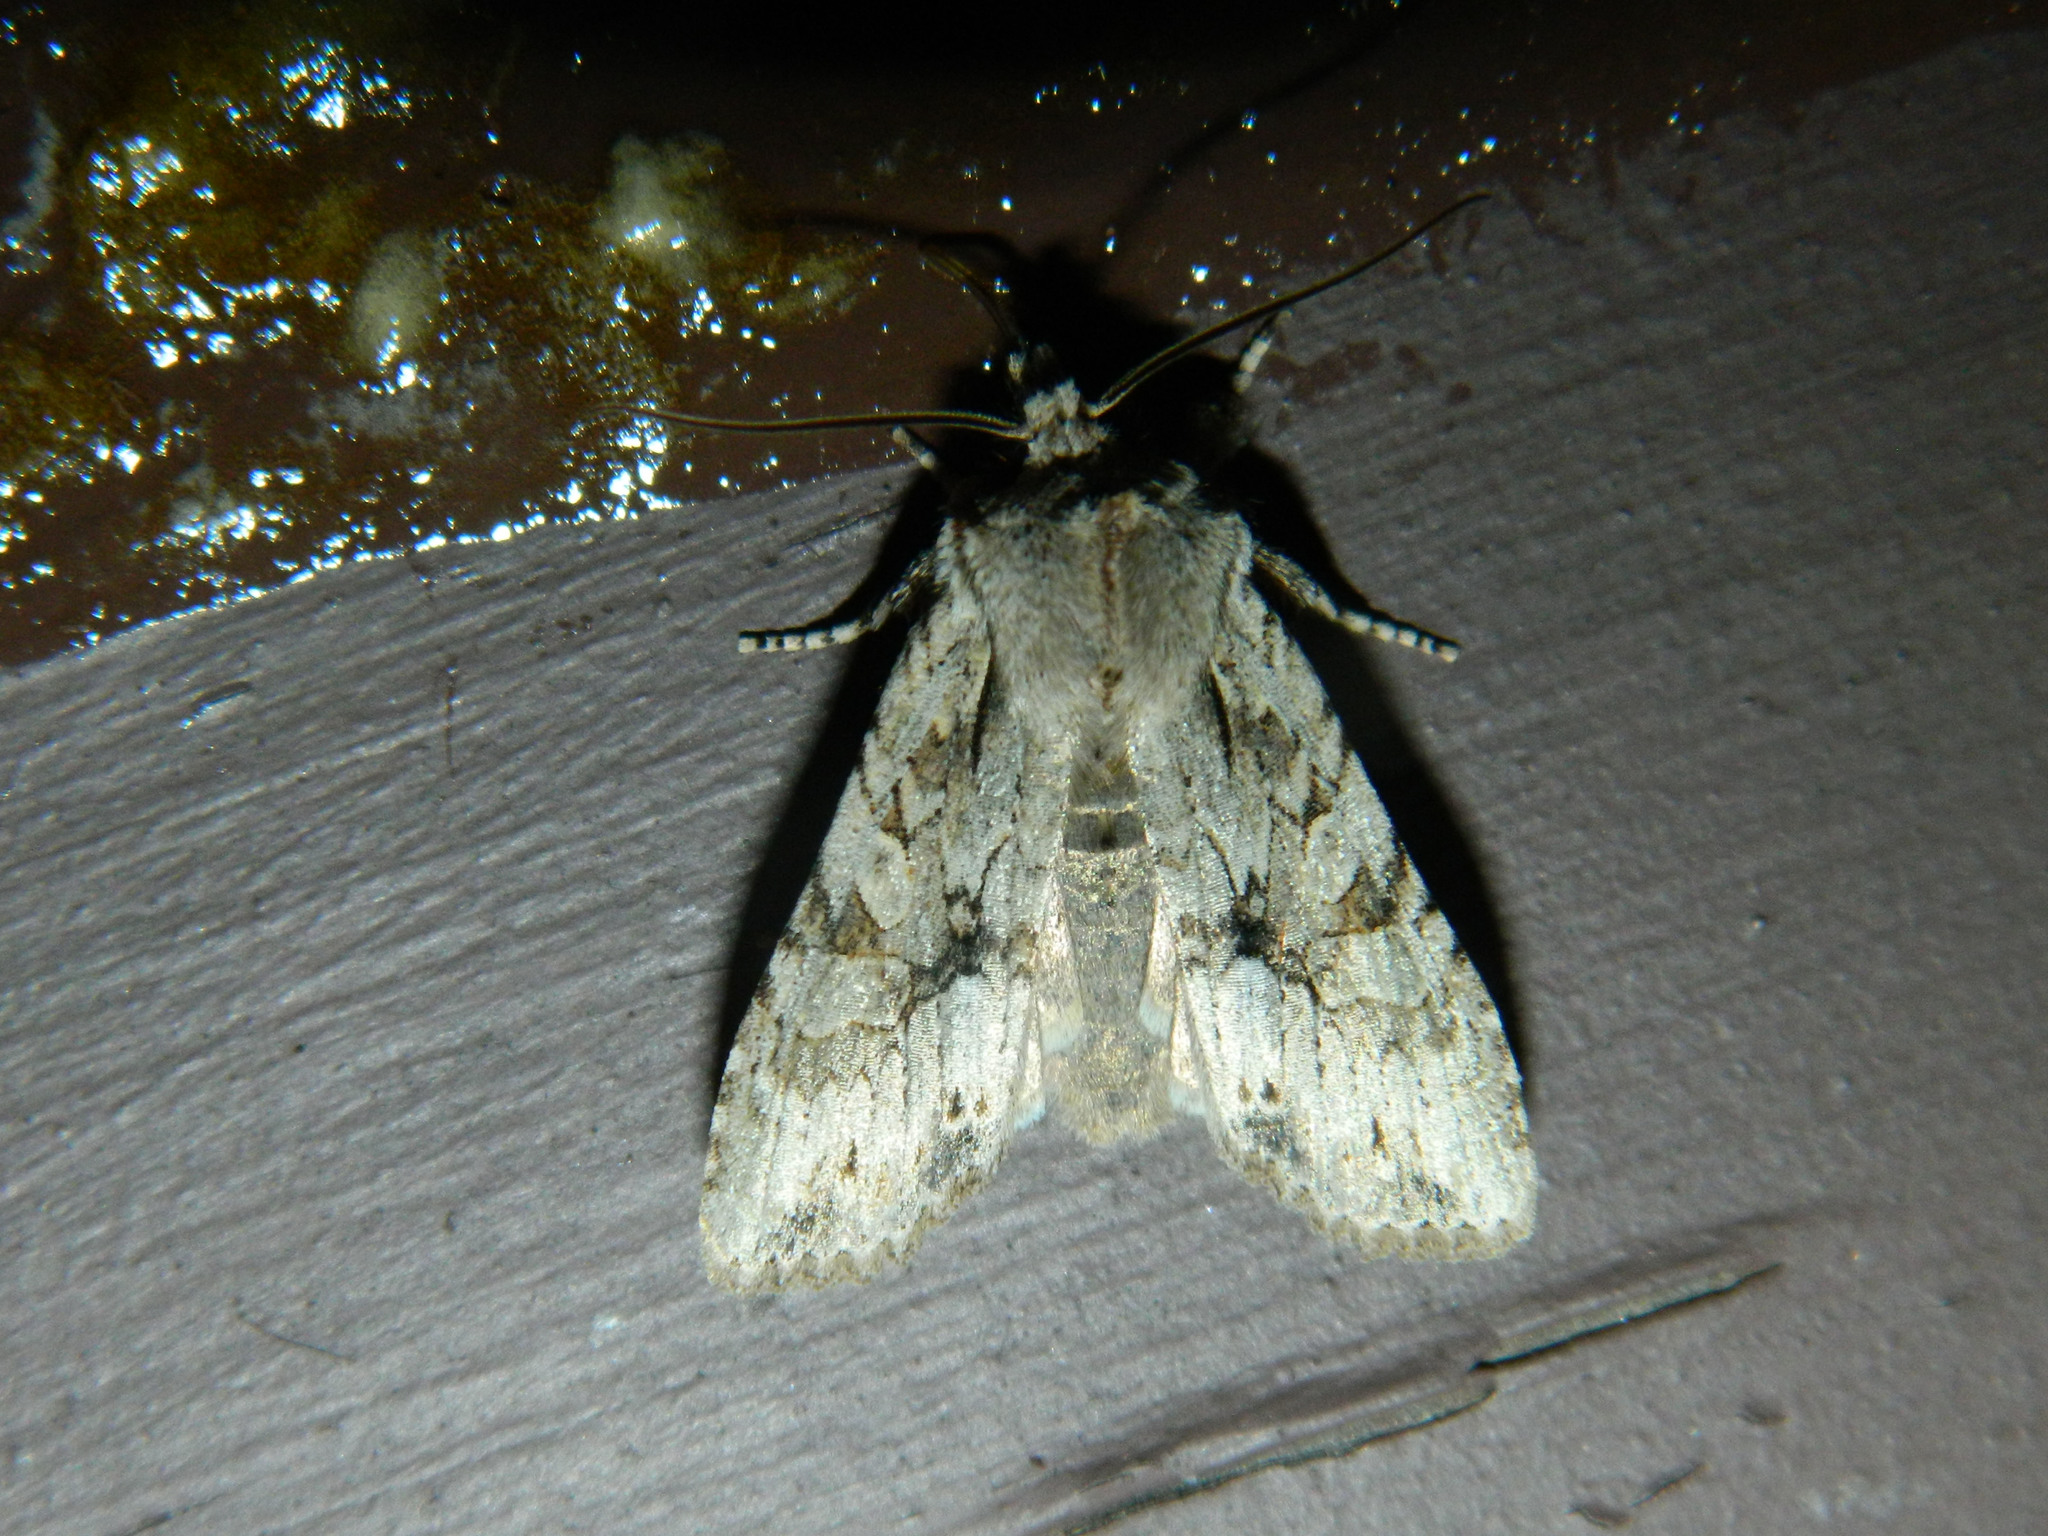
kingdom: Animalia
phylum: Arthropoda
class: Insecta
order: Lepidoptera
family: Noctuidae
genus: Lithophane
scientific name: Lithophane disposita
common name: Dashed gray pinion moth
